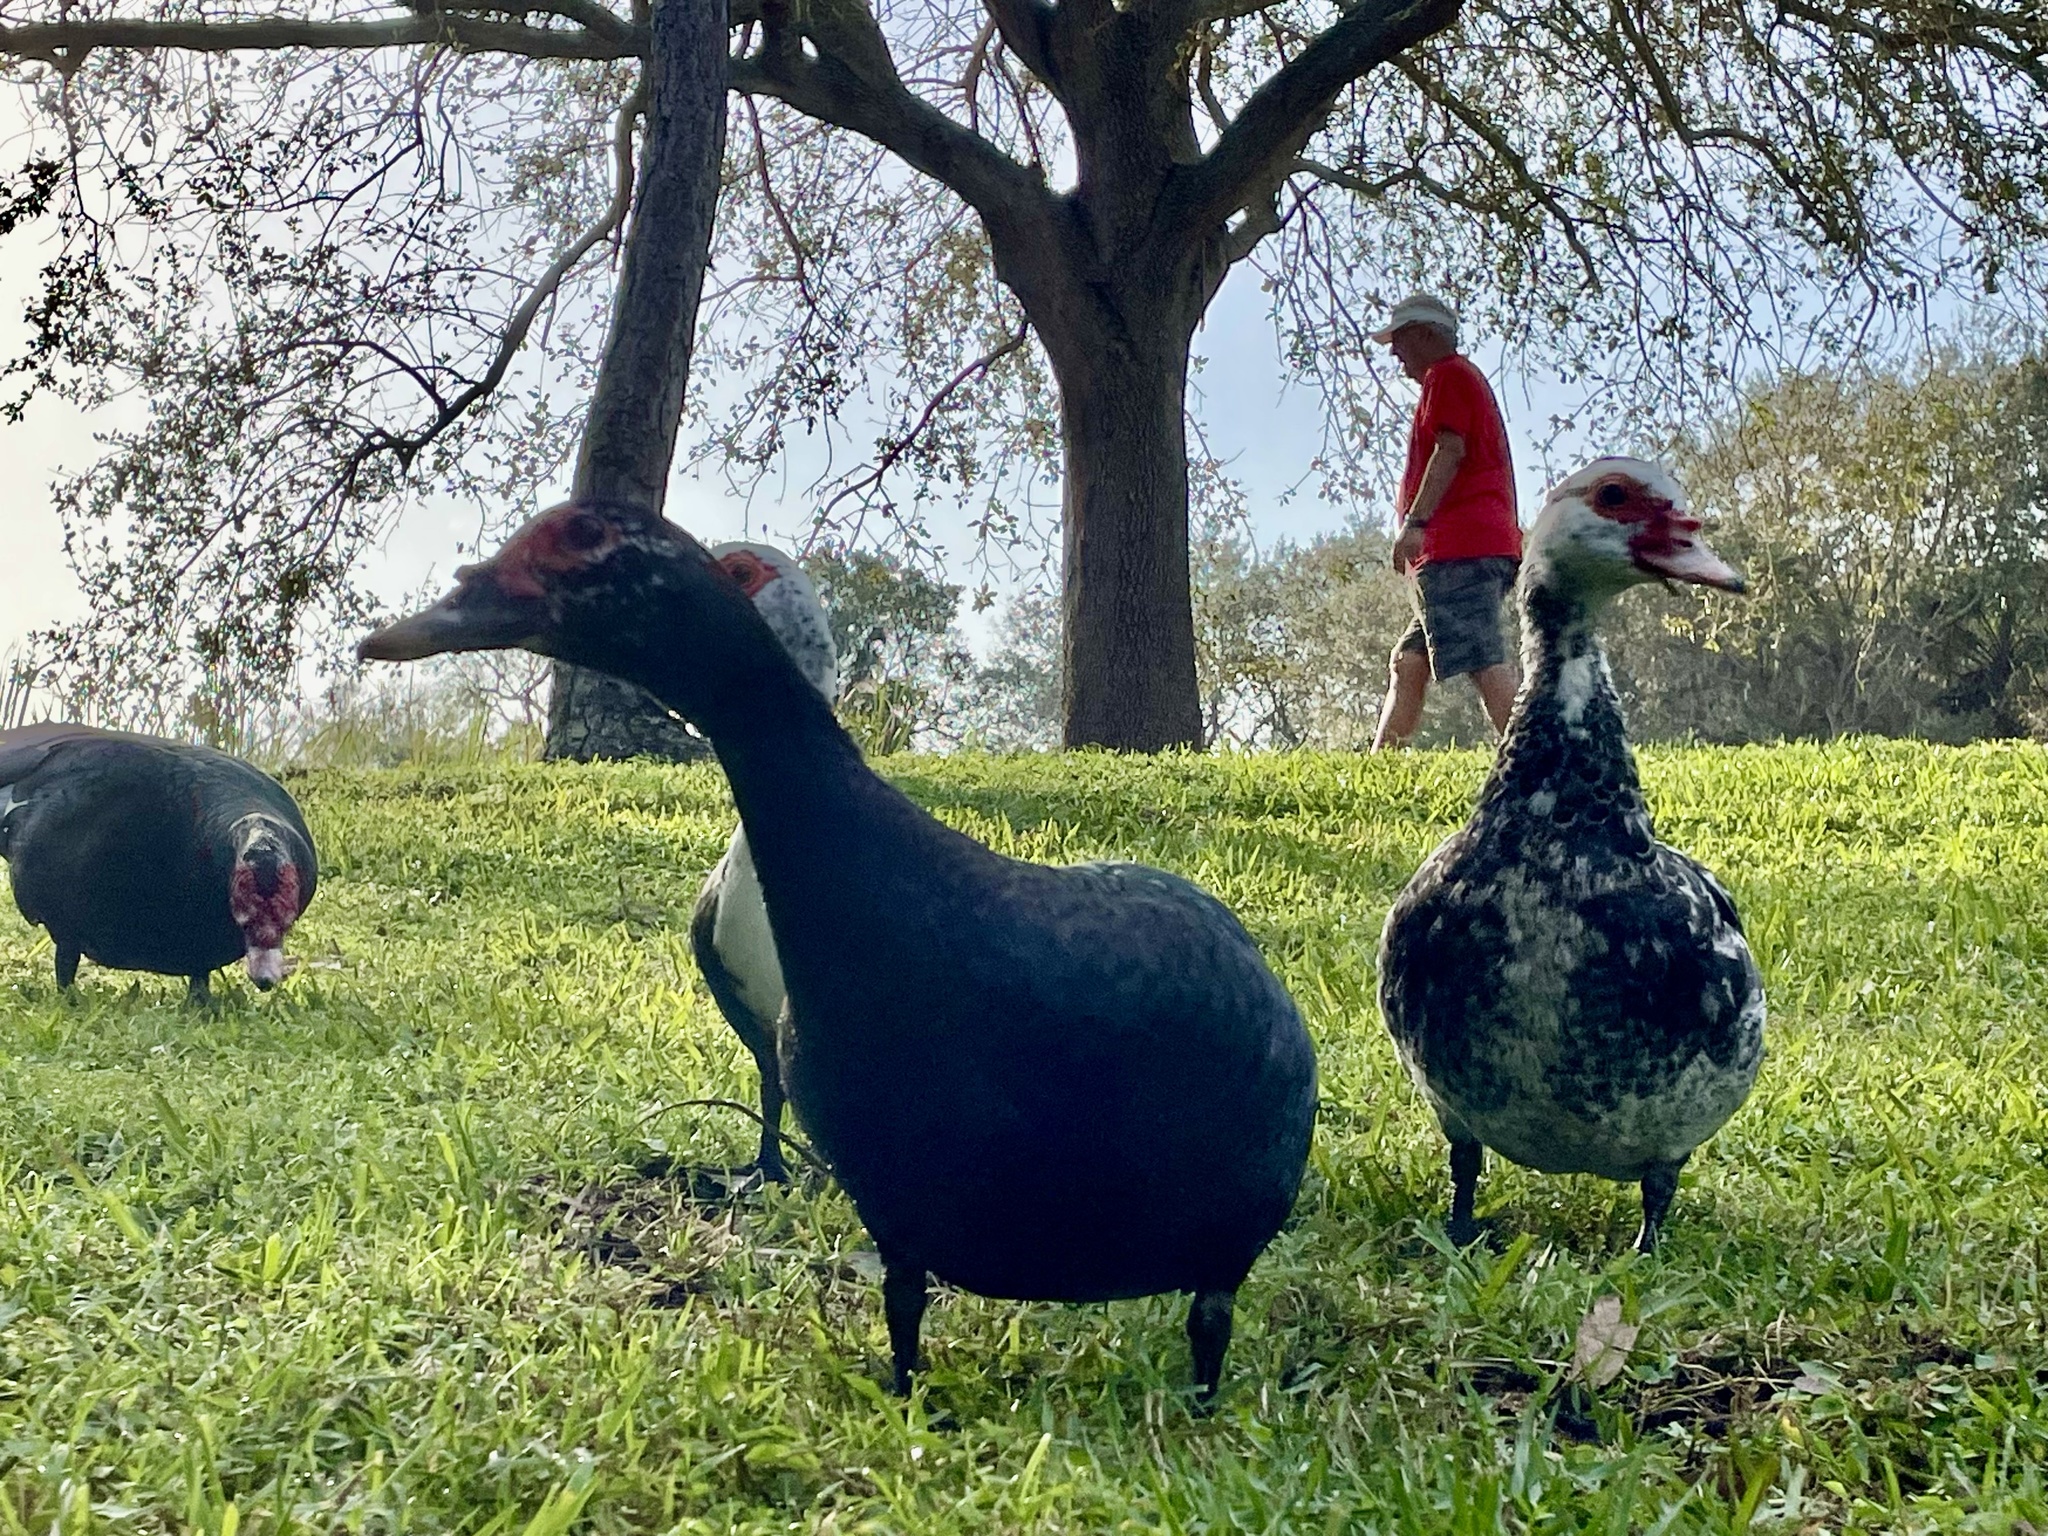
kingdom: Animalia
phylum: Chordata
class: Aves
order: Anseriformes
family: Anatidae
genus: Cairina
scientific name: Cairina moschata
